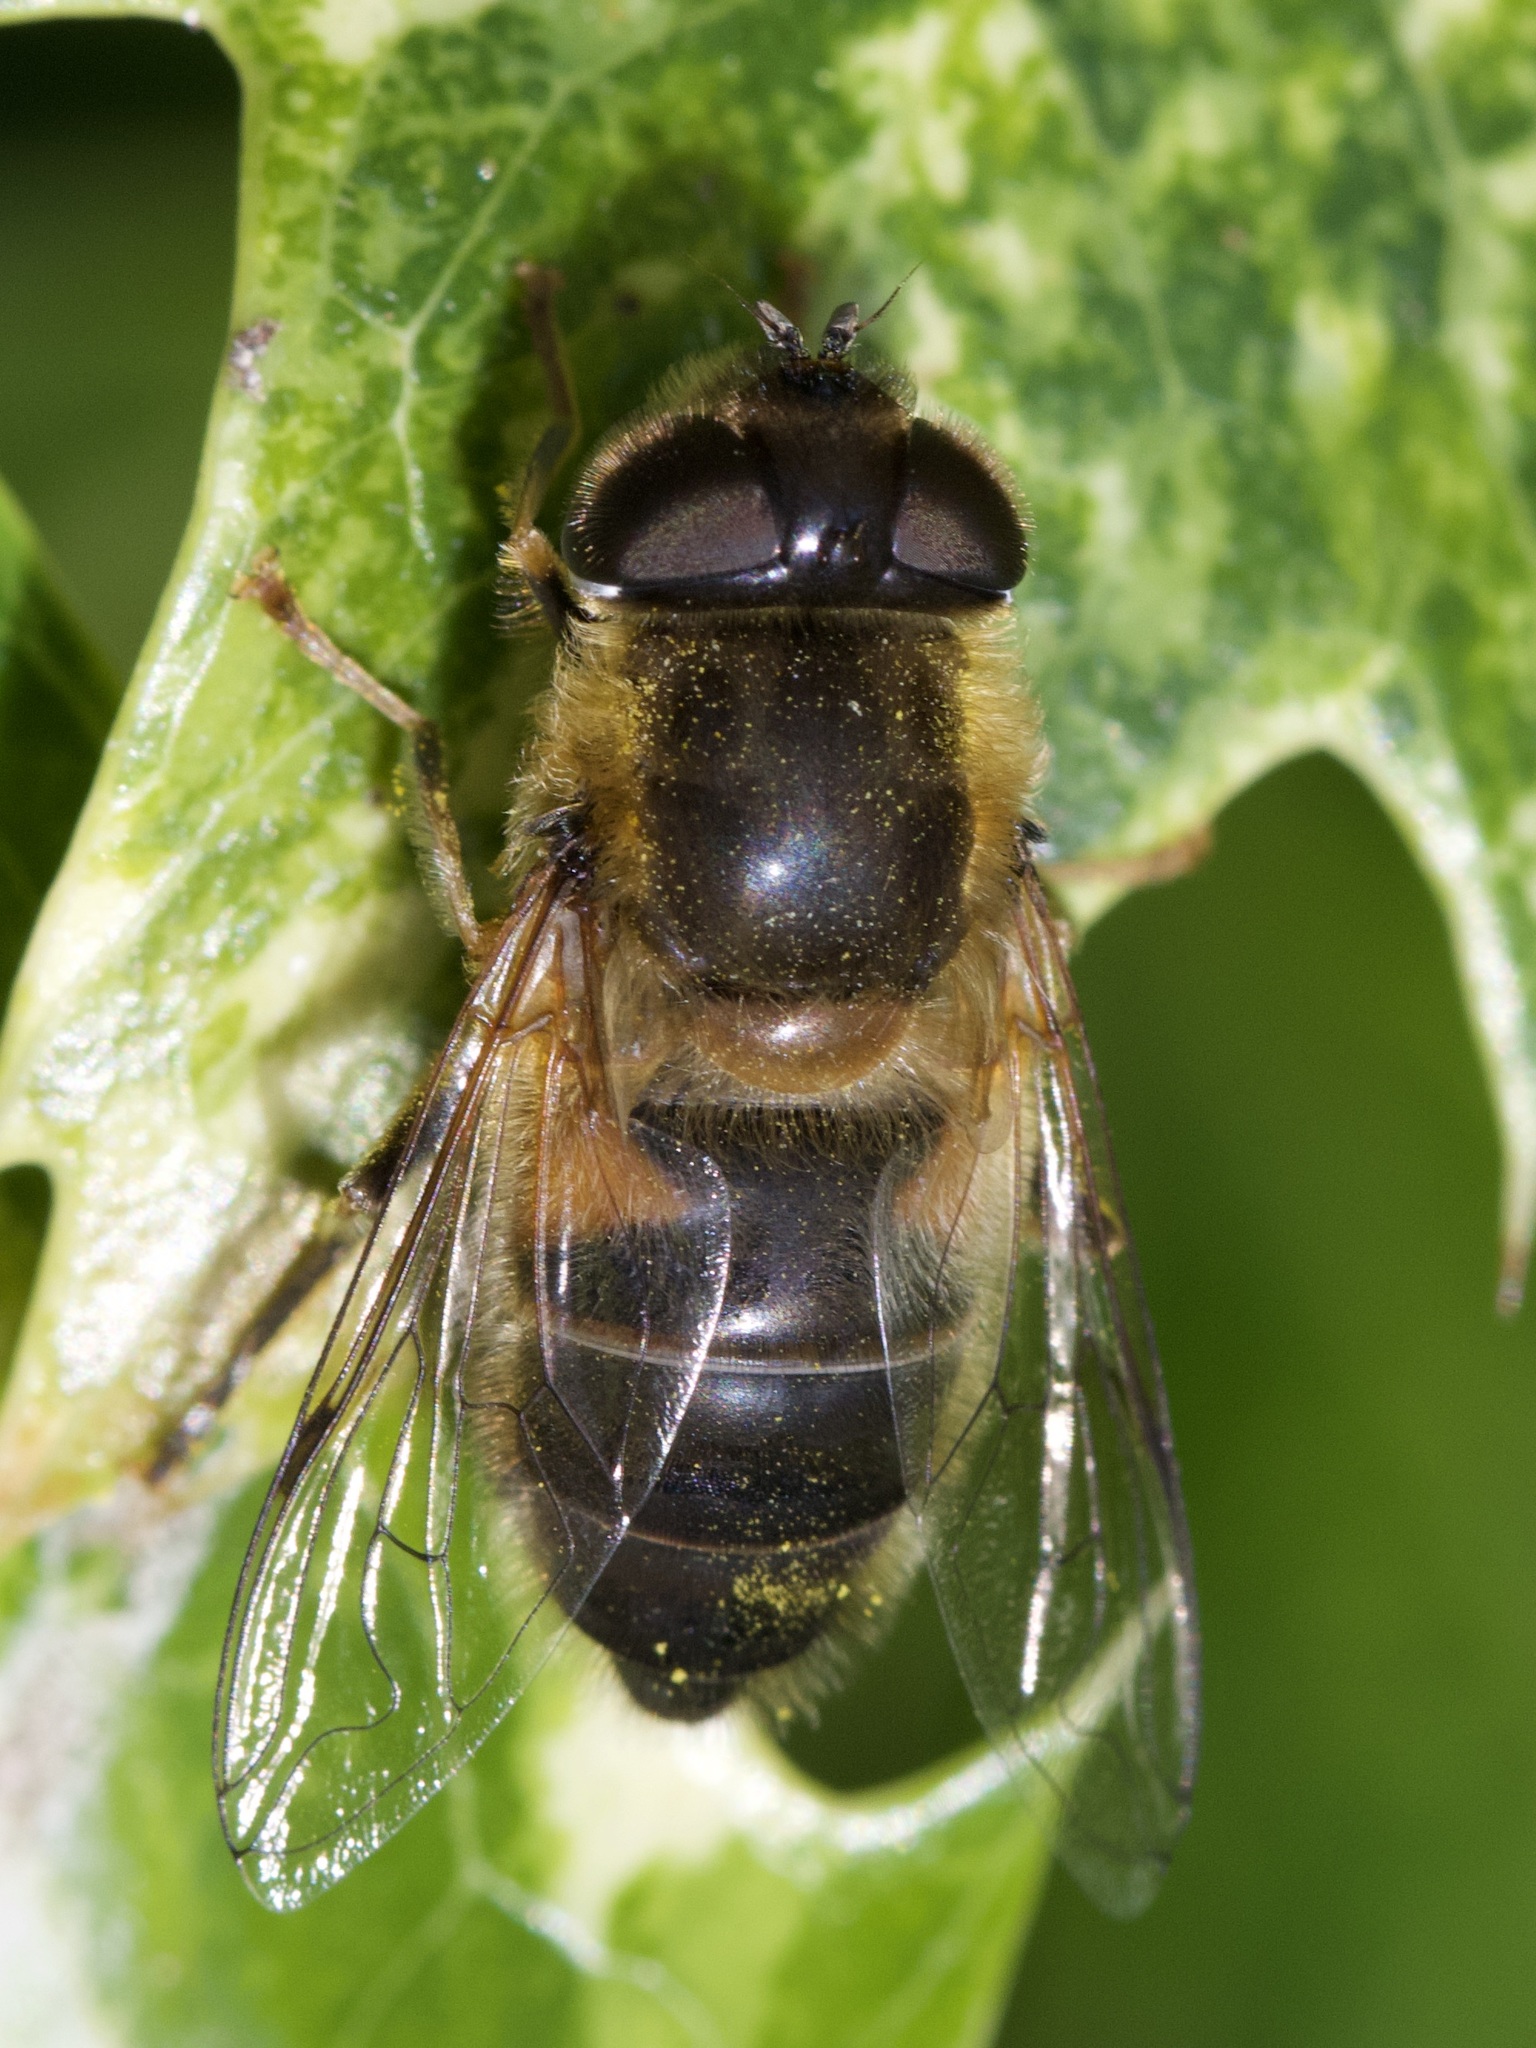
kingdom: Animalia
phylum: Arthropoda
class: Insecta
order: Diptera
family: Syrphidae
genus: Eristalis
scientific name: Eristalis pertinax
